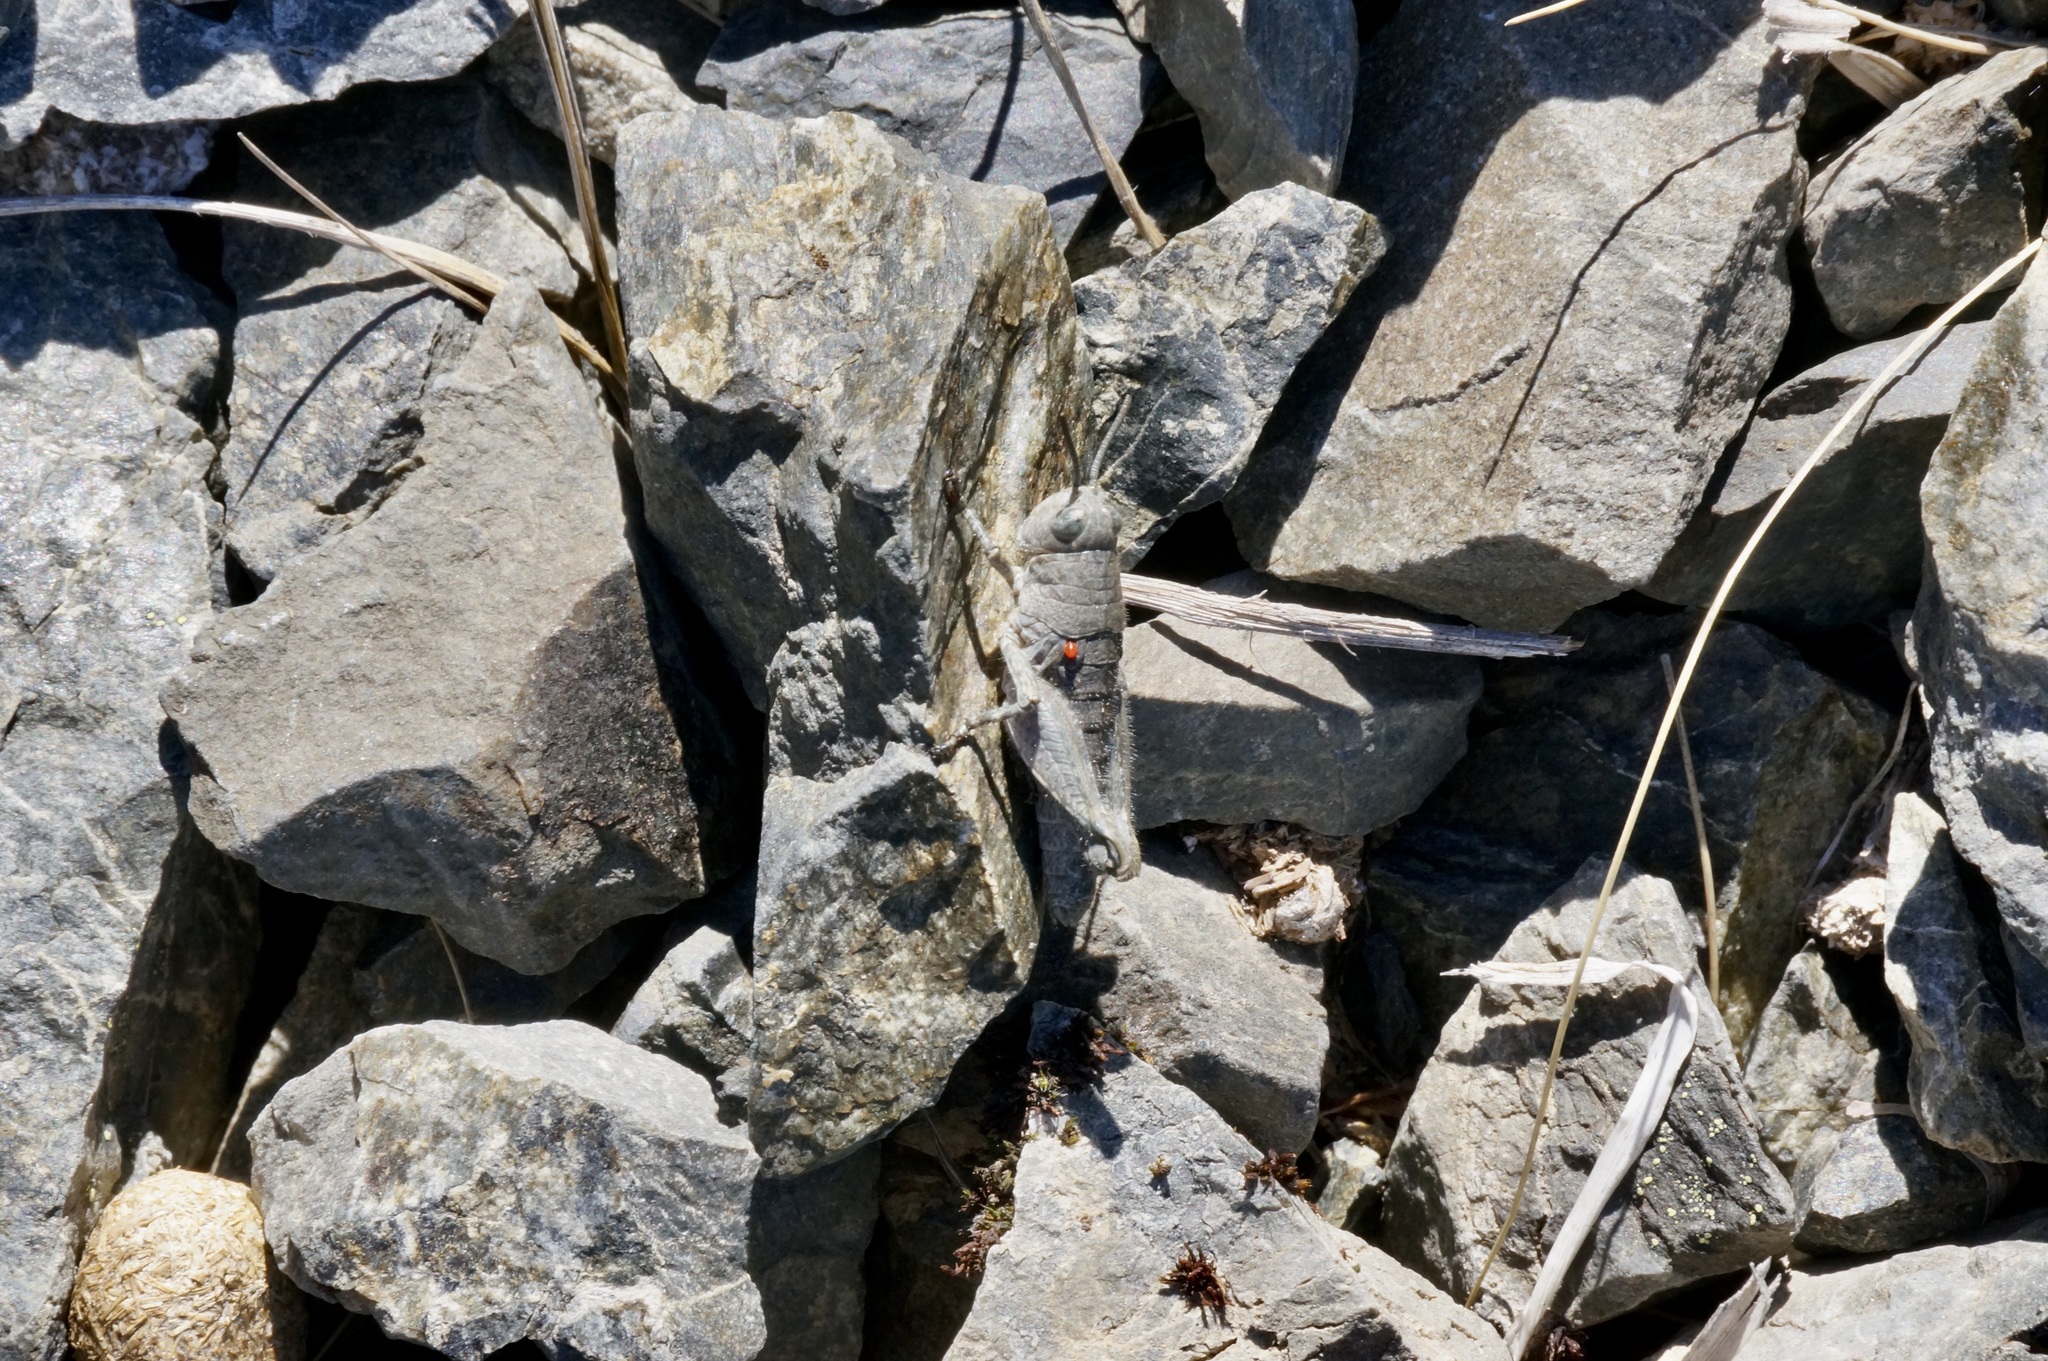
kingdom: Animalia
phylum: Arthropoda
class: Insecta
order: Orthoptera
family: Acrididae
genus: Sigaus
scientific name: Sigaus
